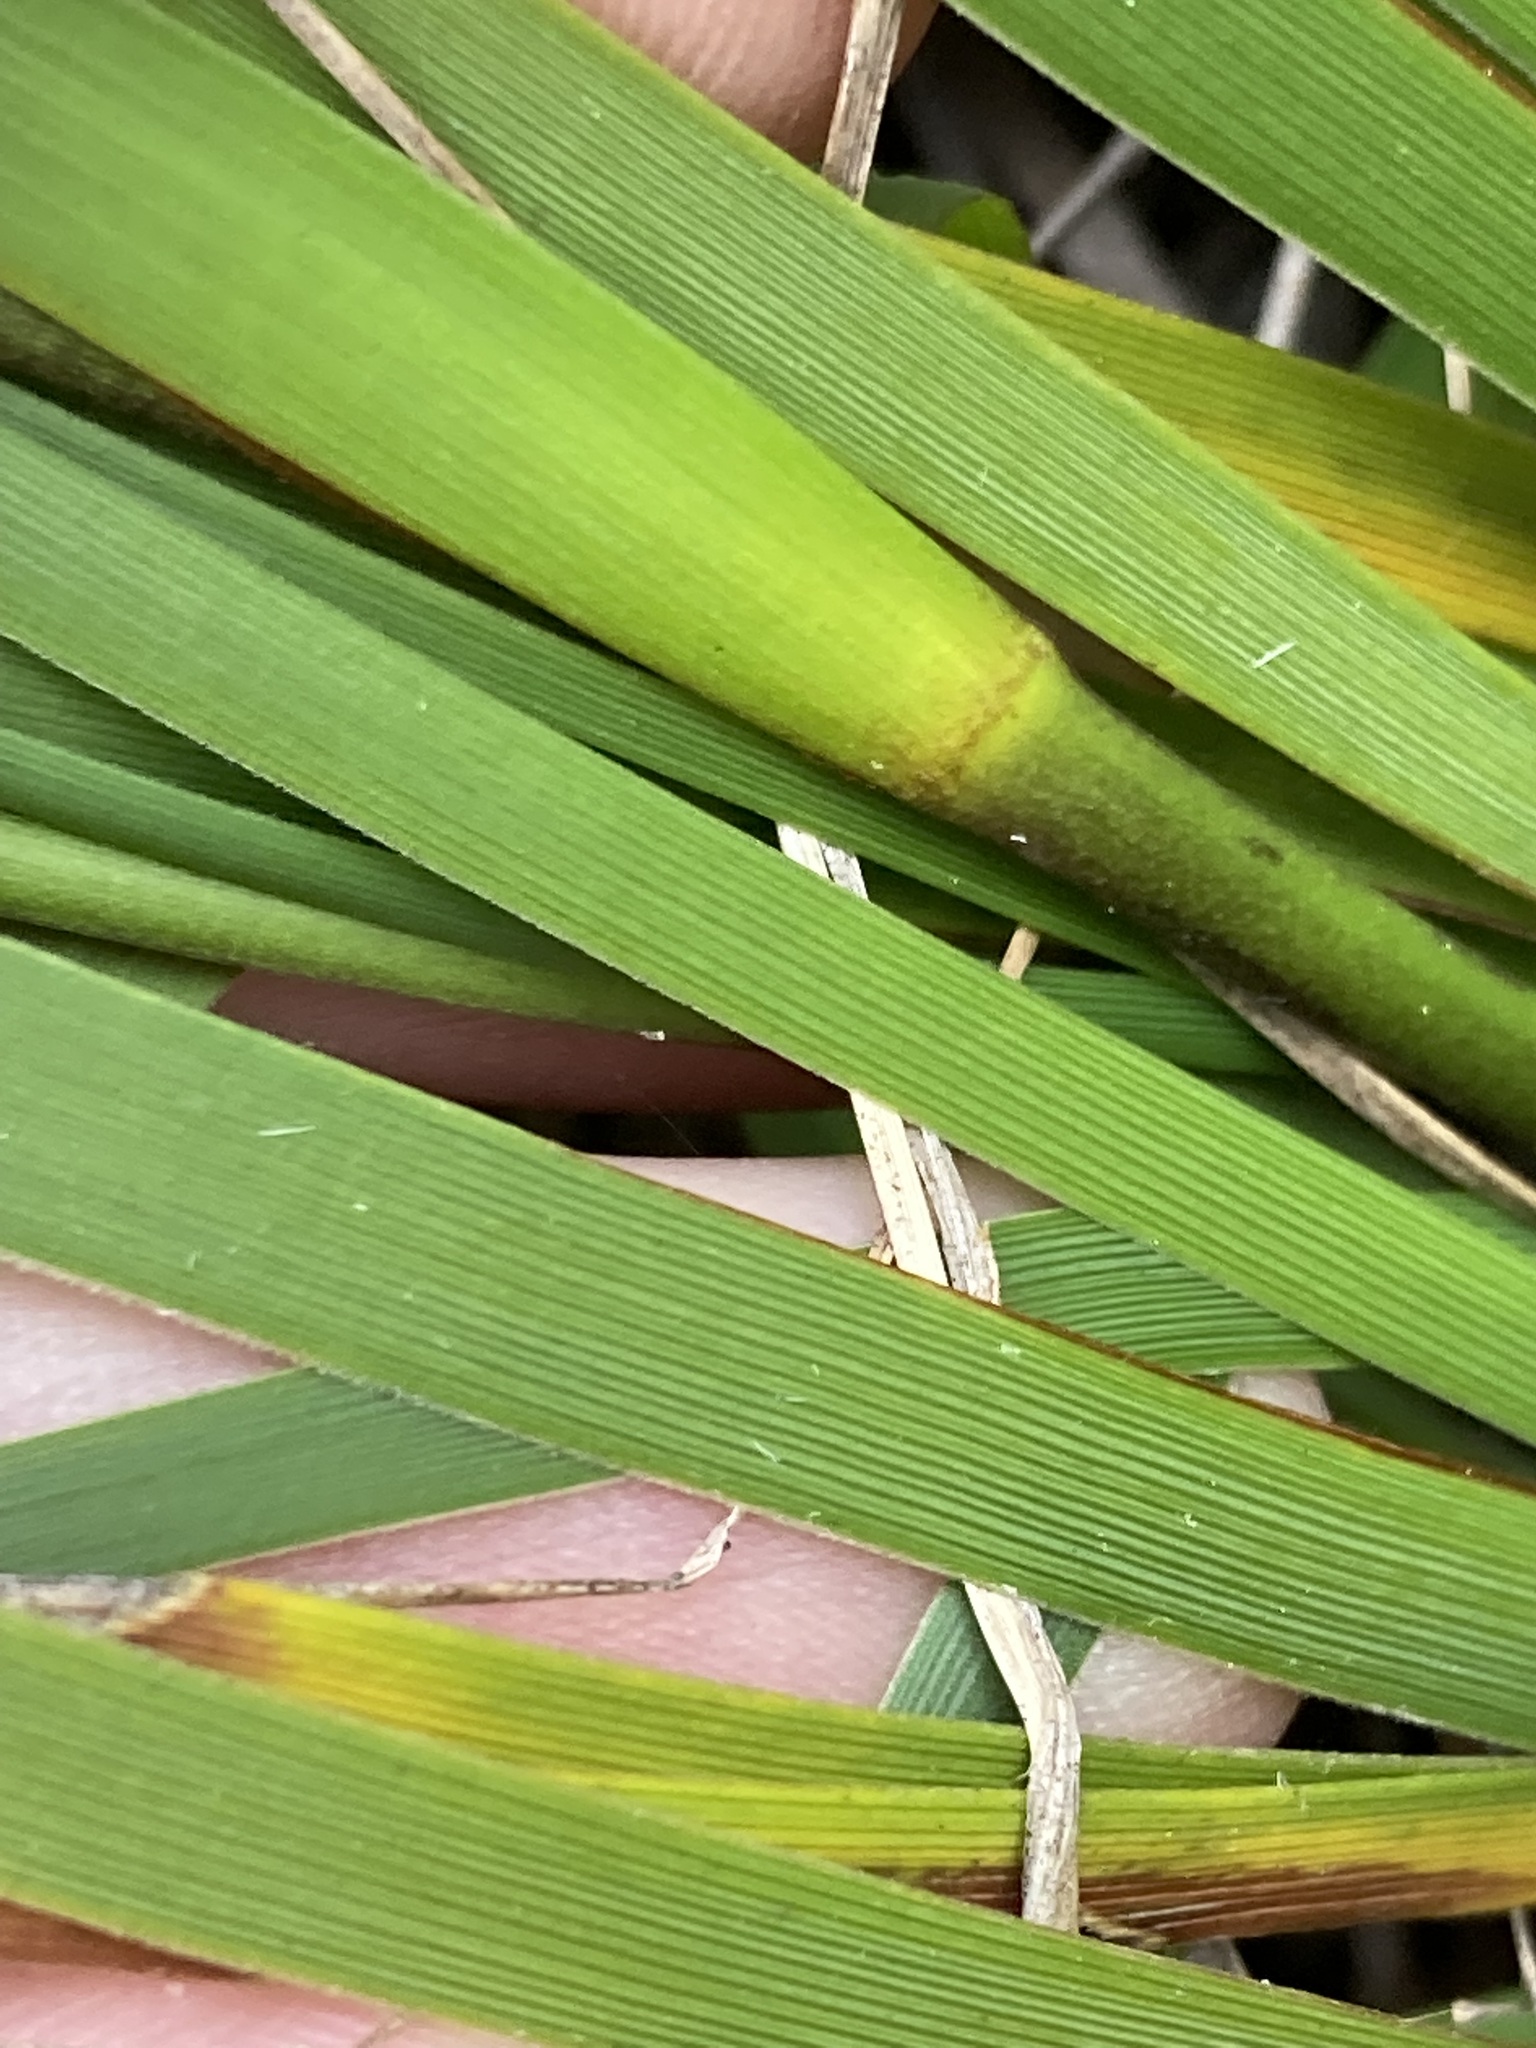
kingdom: Plantae
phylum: Tracheophyta
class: Liliopsida
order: Asparagales
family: Iridaceae
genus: Orthrosanthus
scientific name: Orthrosanthus polystachyus
